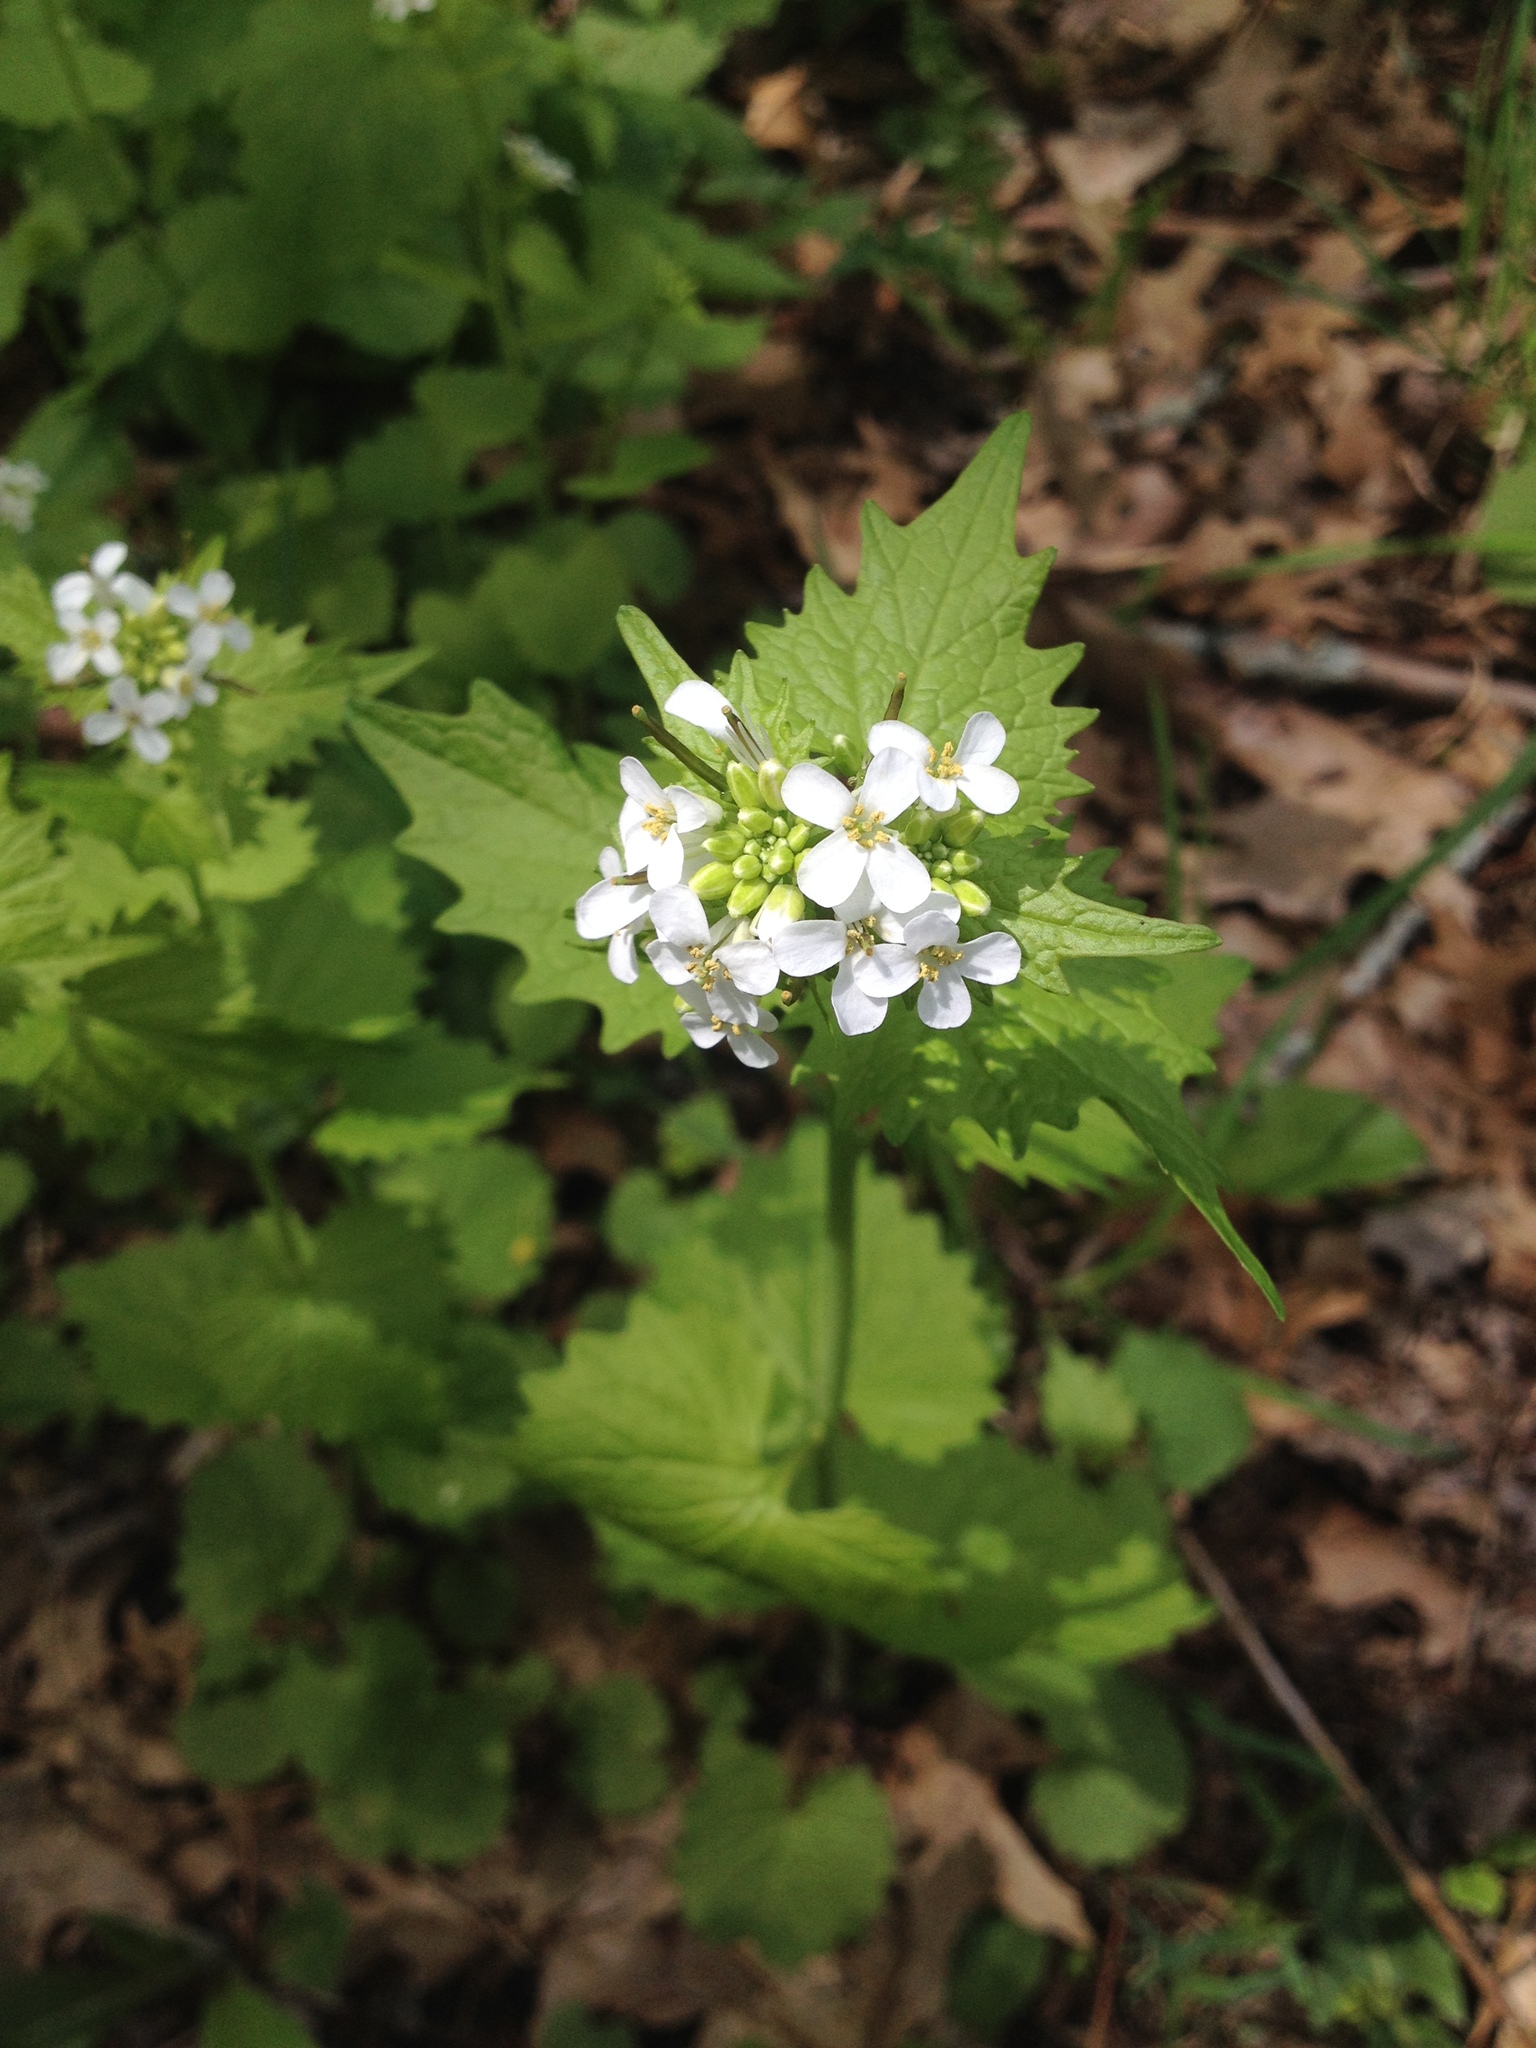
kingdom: Plantae
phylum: Tracheophyta
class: Magnoliopsida
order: Brassicales
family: Brassicaceae
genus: Alliaria
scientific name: Alliaria petiolata
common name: Garlic mustard
